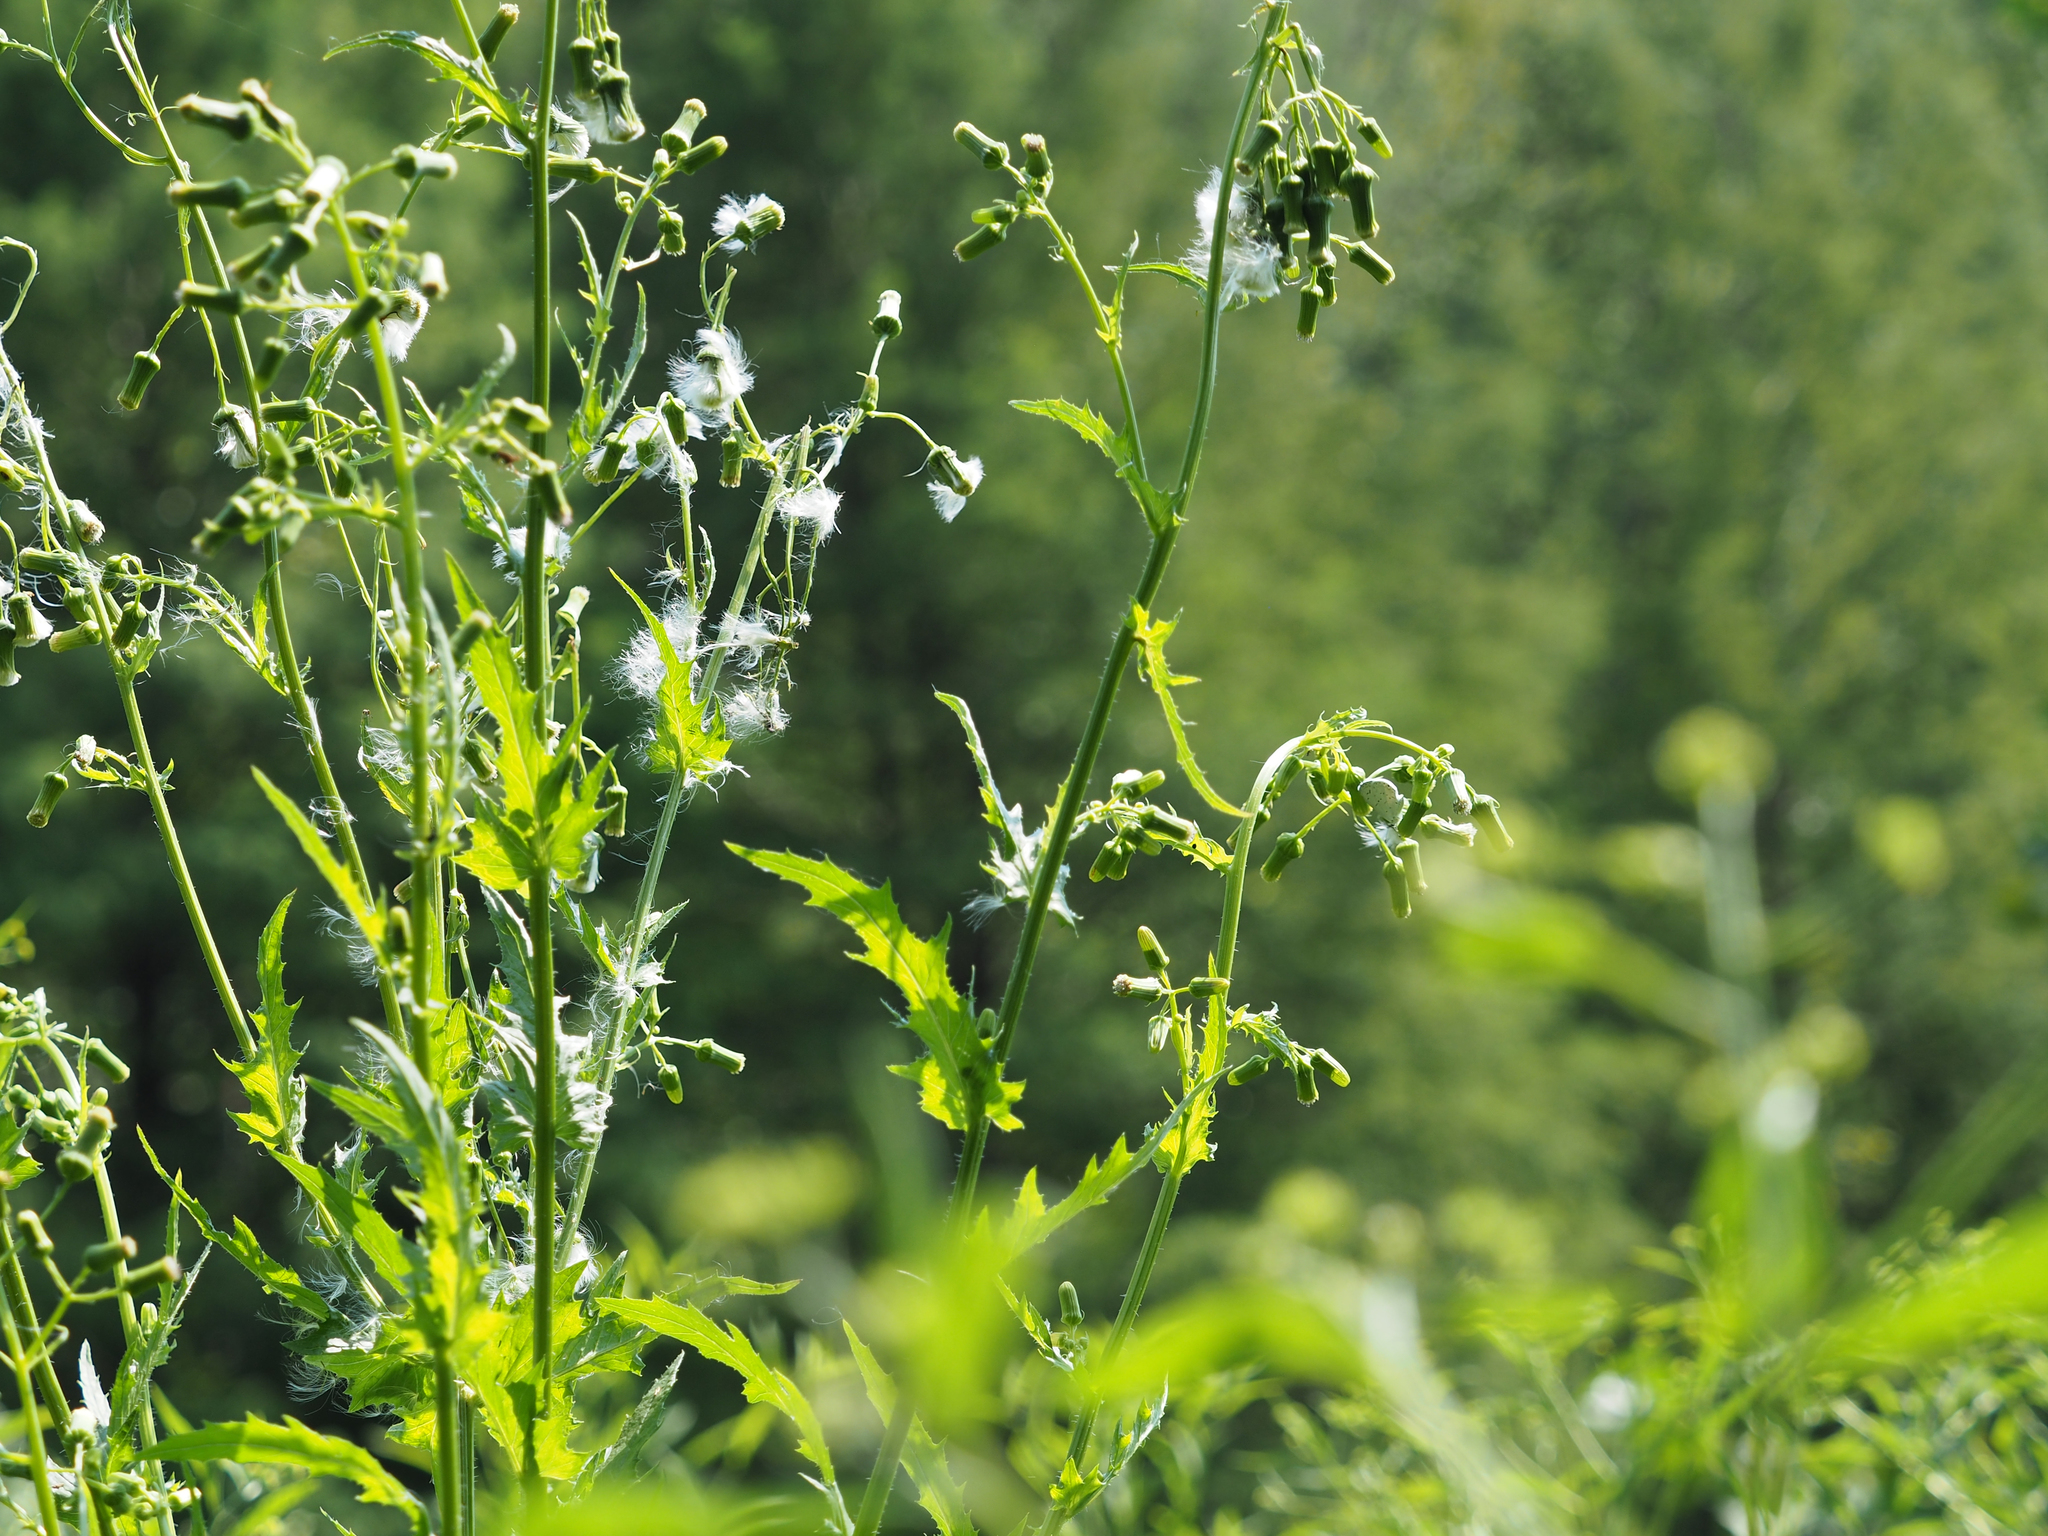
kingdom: Plantae
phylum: Tracheophyta
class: Magnoliopsida
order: Asterales
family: Asteraceae
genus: Erechtites
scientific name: Erechtites hieraciifolius
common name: American burnweed
